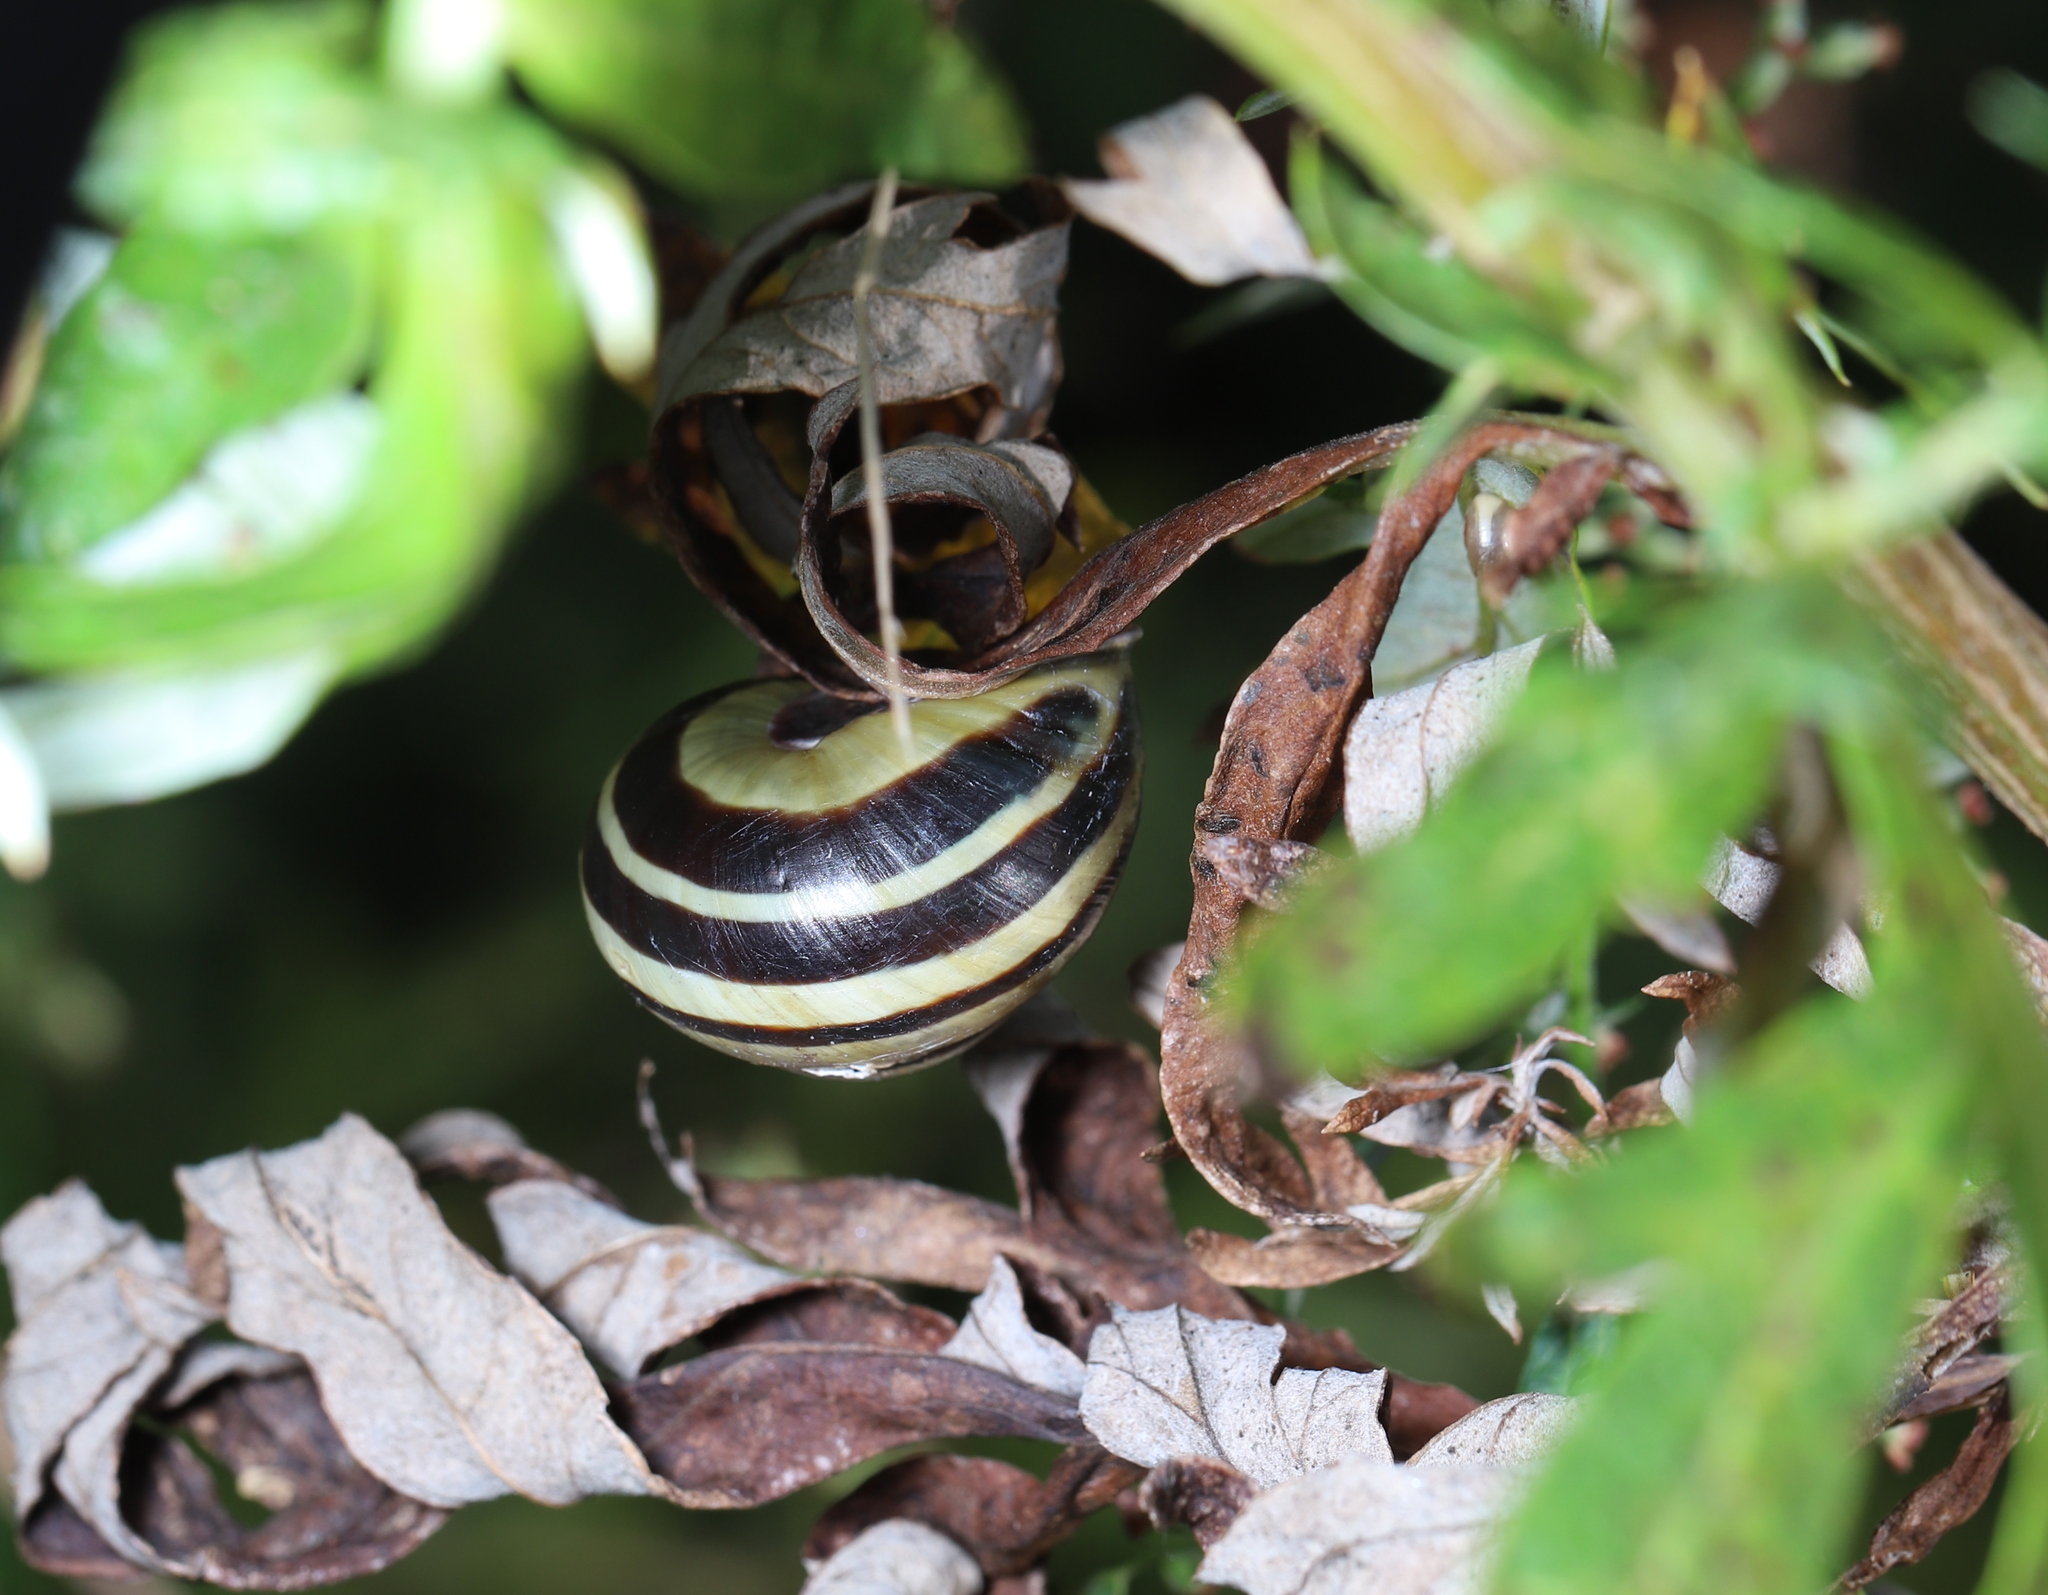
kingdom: Animalia
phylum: Mollusca
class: Gastropoda
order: Stylommatophora
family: Helicidae
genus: Cepaea
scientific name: Cepaea nemoralis
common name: Grovesnail
